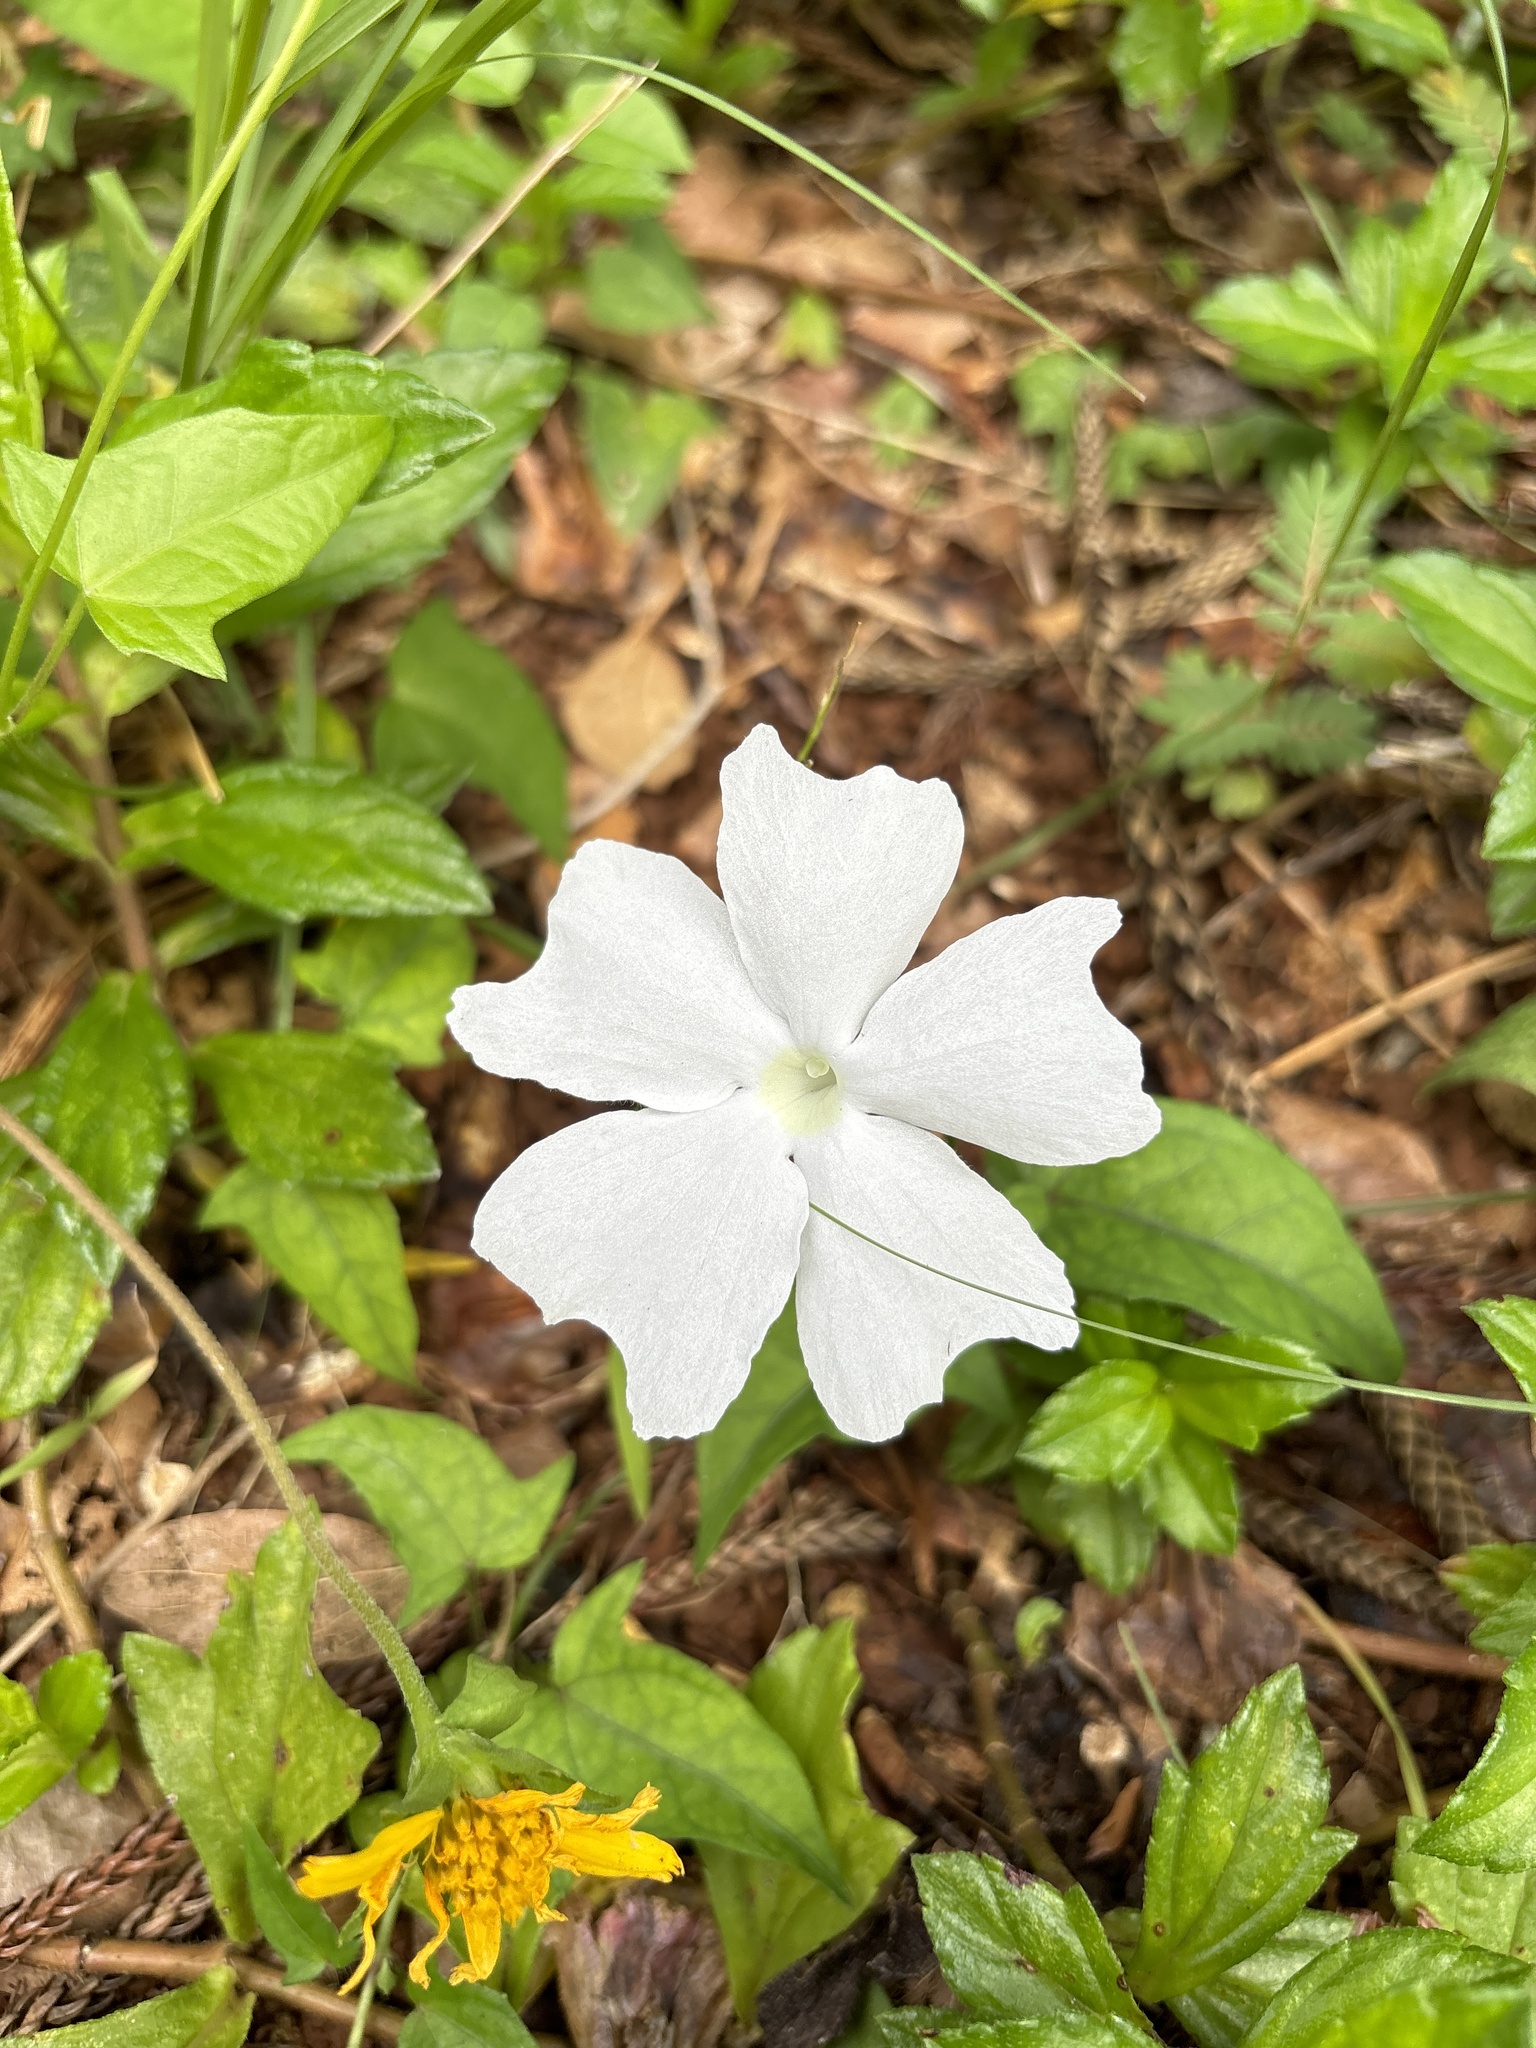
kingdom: Plantae
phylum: Tracheophyta
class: Magnoliopsida
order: Lamiales
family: Acanthaceae
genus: Thunbergia
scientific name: Thunbergia fragrans
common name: Whitelady
